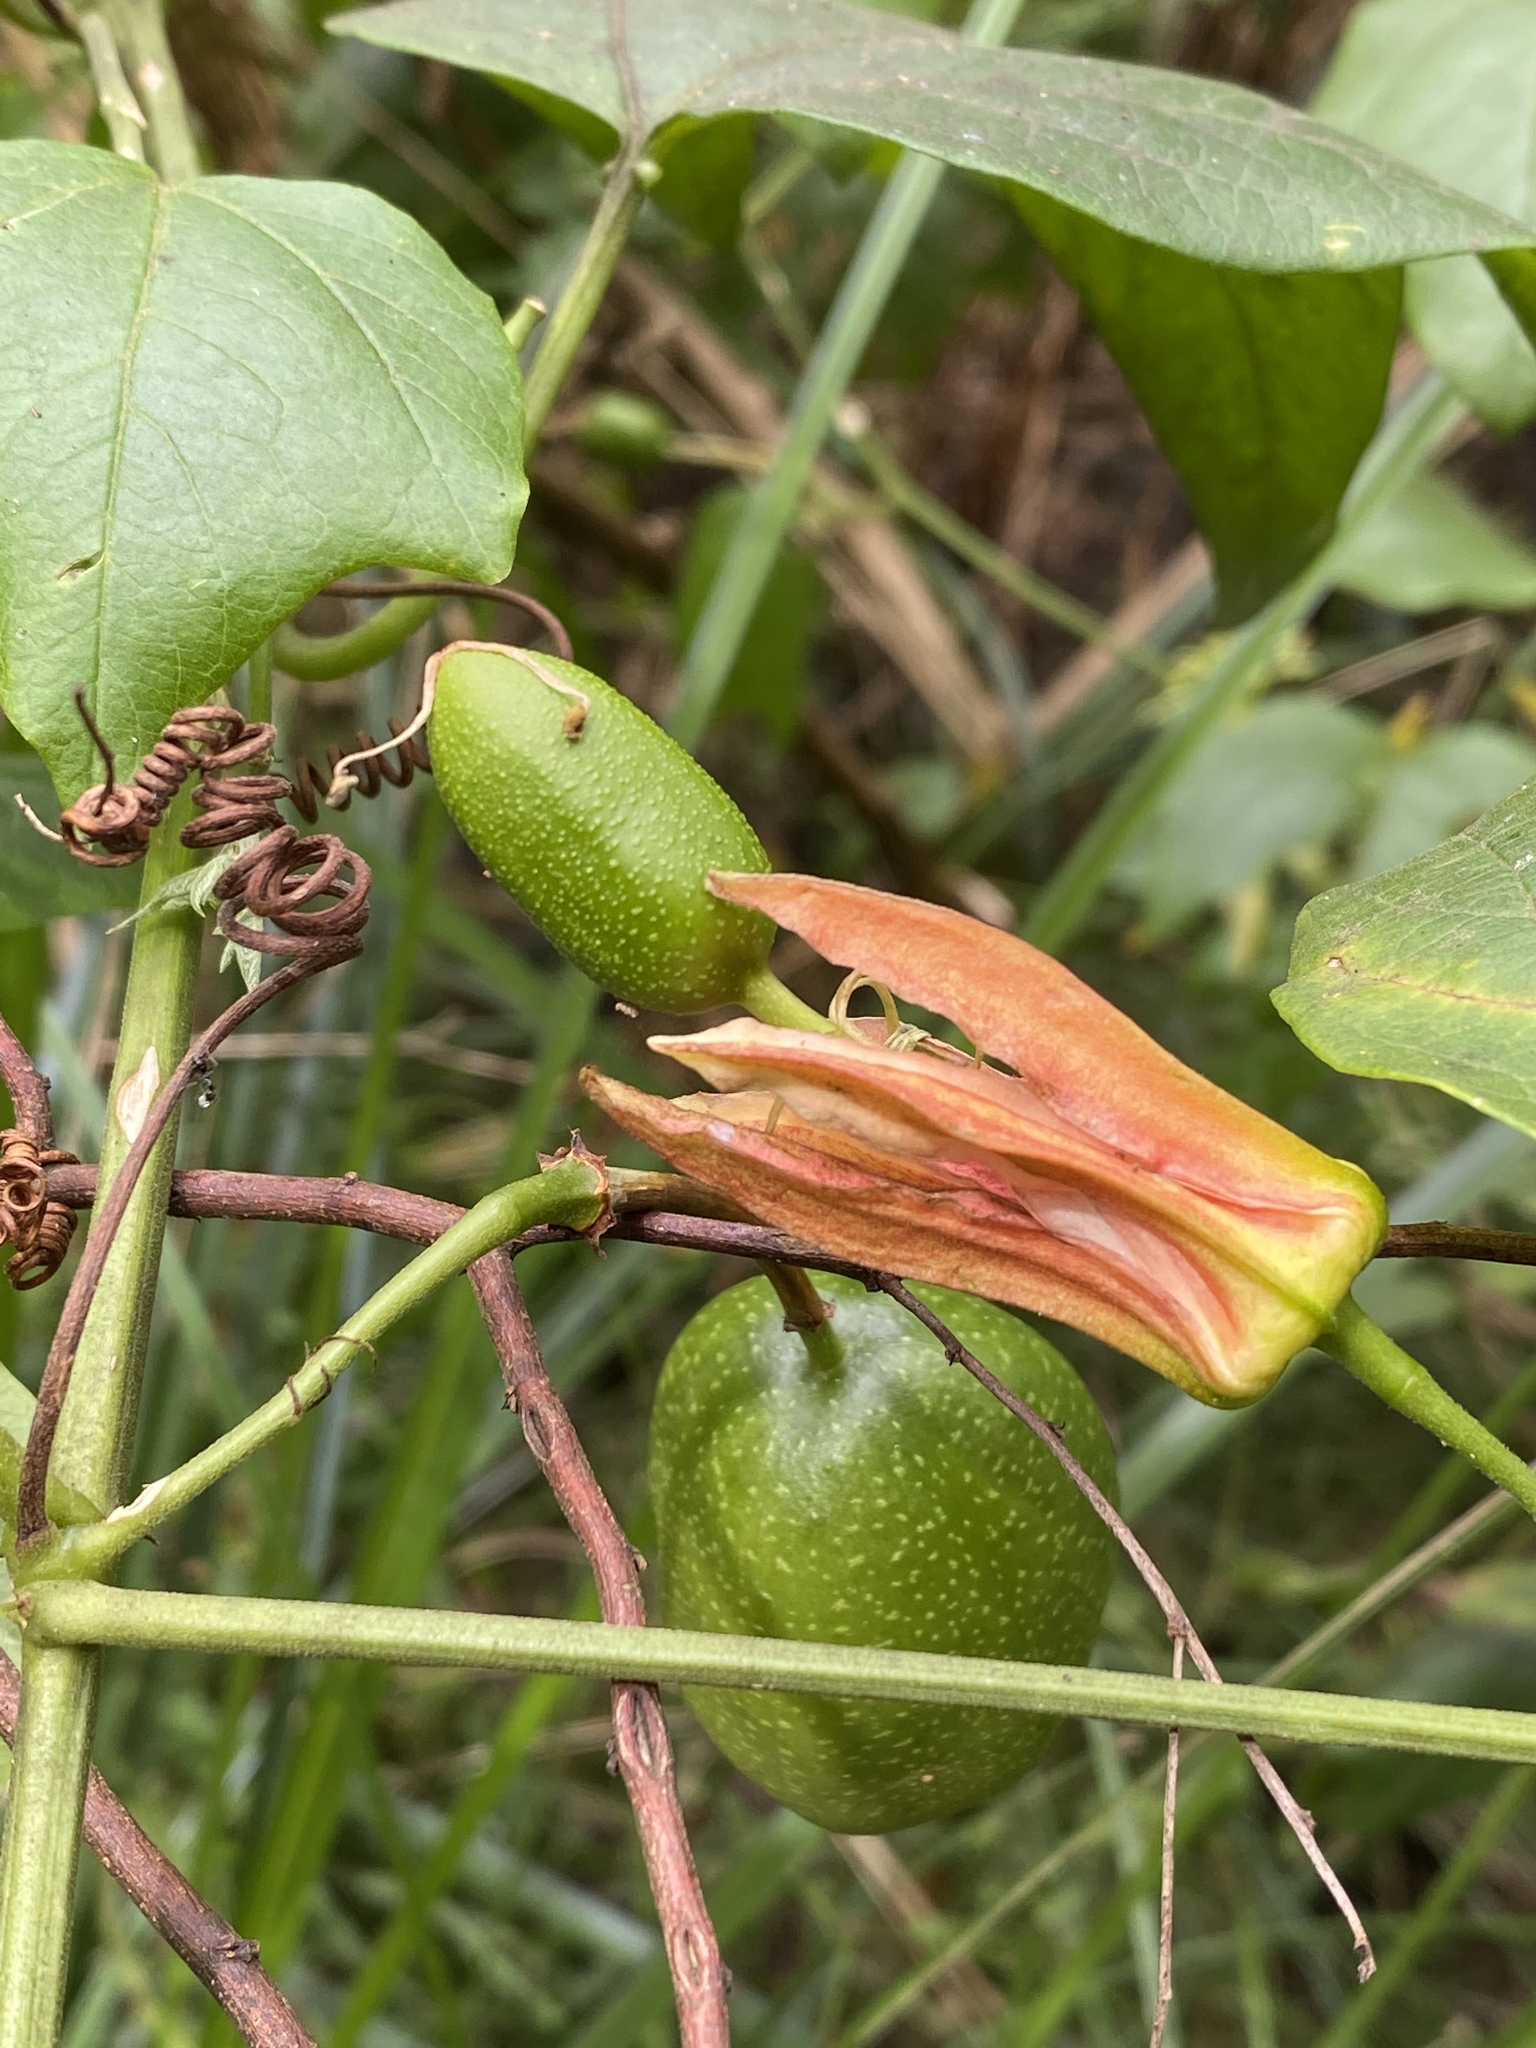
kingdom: Plantae
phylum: Tracheophyta
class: Magnoliopsida
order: Malpighiales
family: Passifloraceae
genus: Passiflora
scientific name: Passiflora herbertiana
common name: Yellow passionflower
